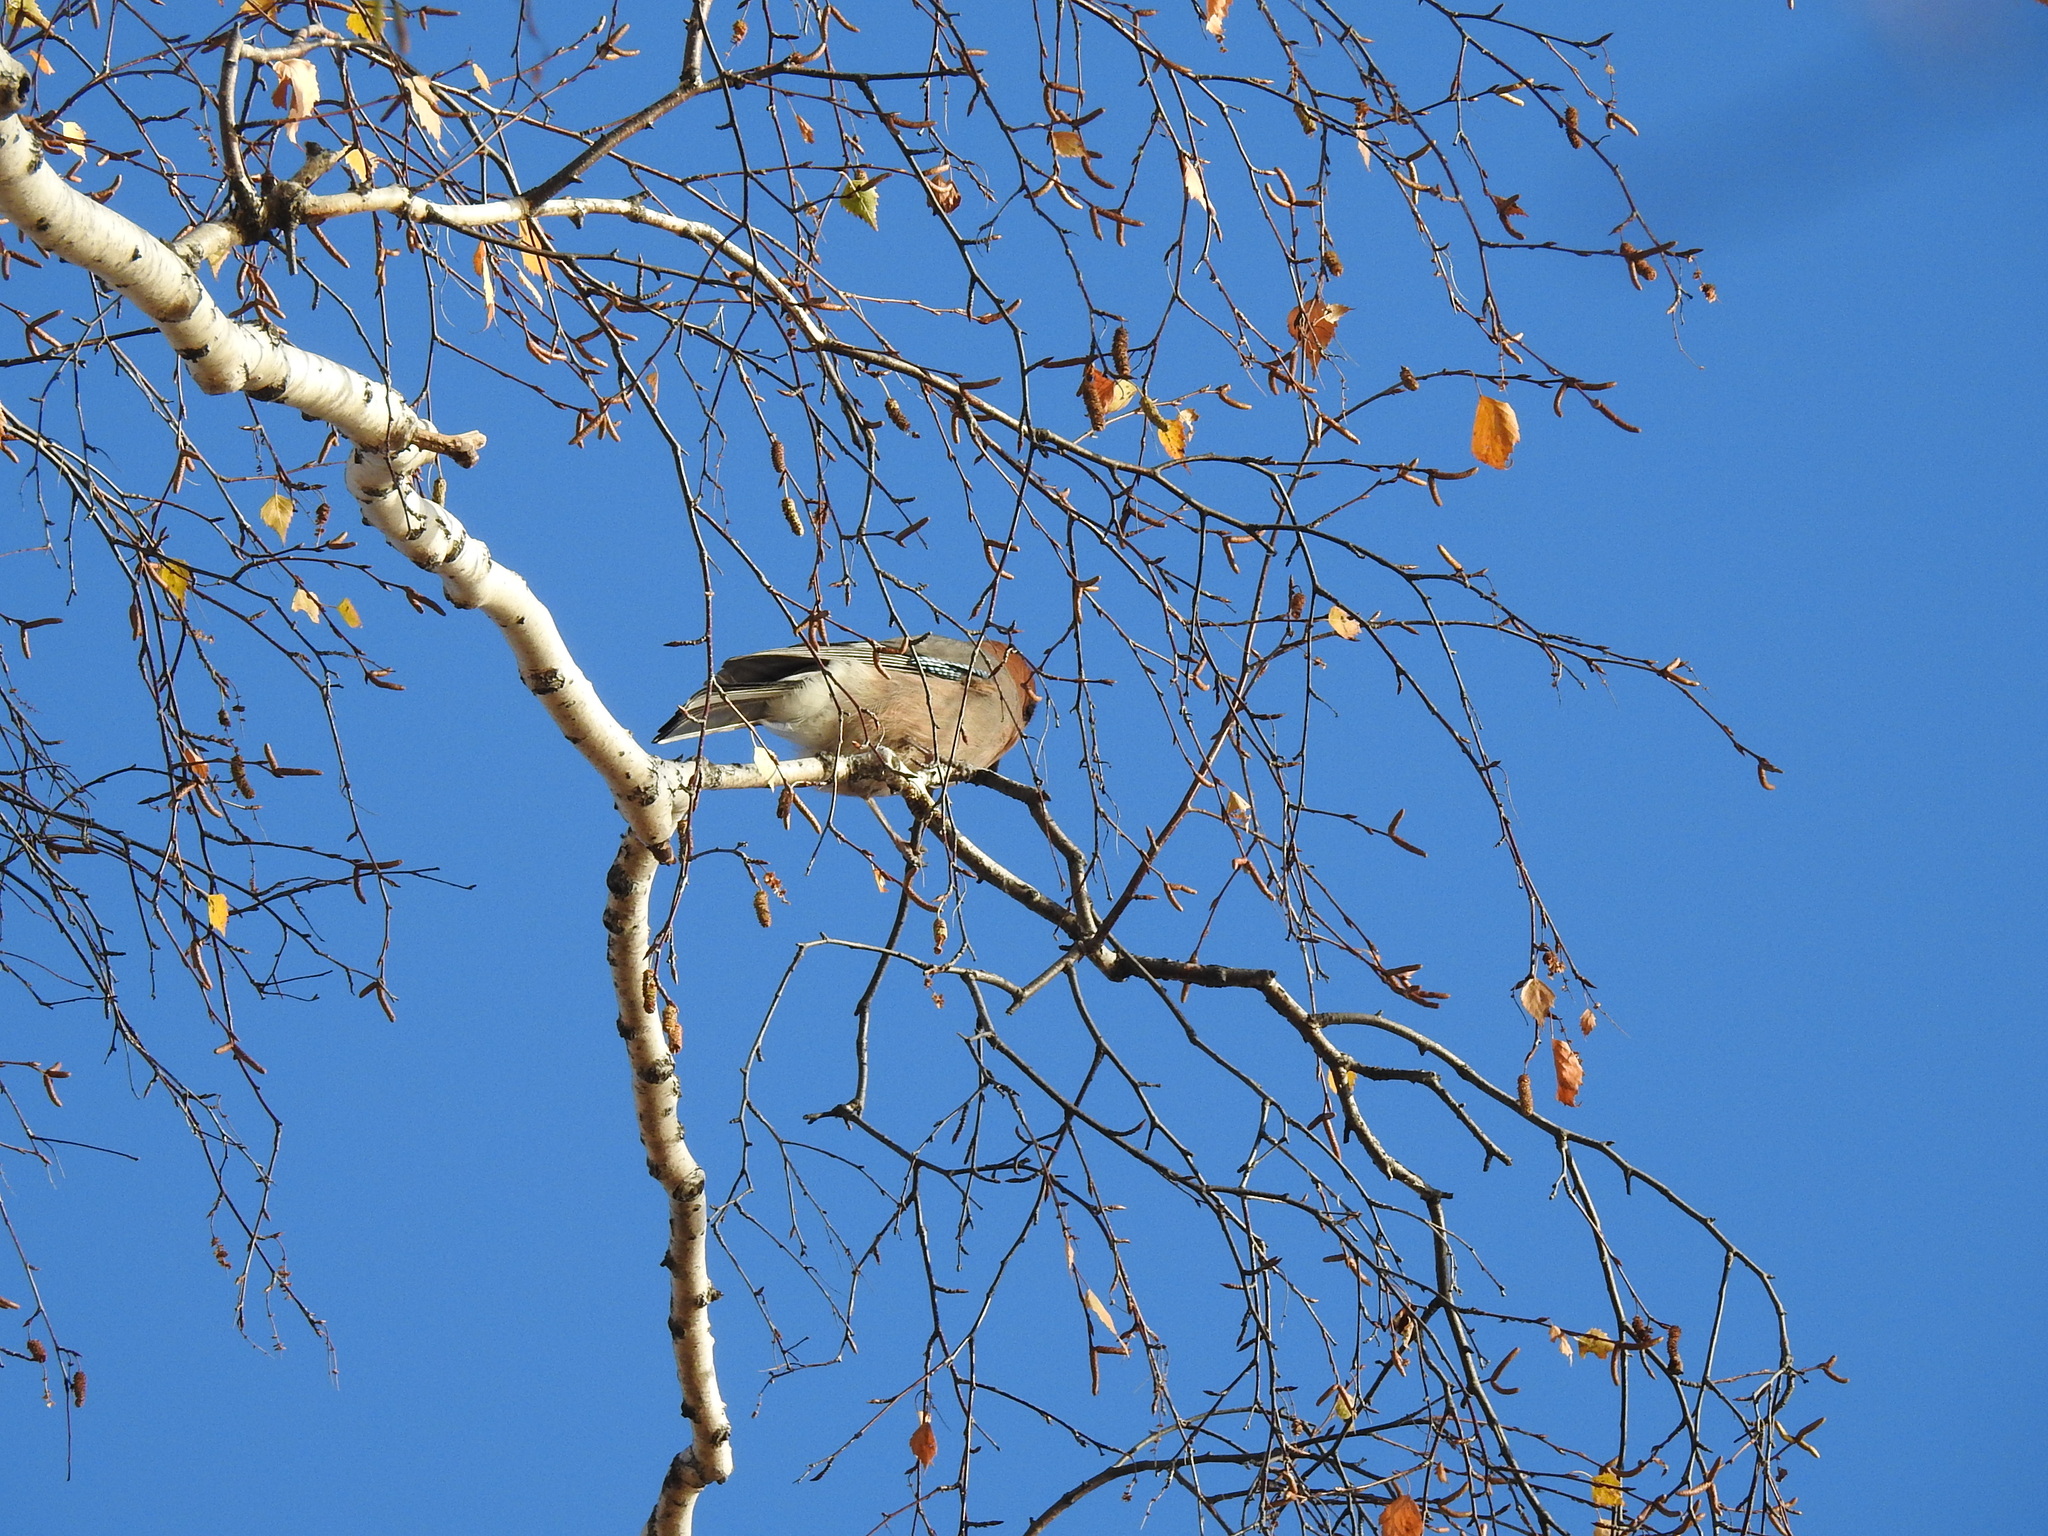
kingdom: Animalia
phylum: Chordata
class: Aves
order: Passeriformes
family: Corvidae
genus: Garrulus
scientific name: Garrulus glandarius
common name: Eurasian jay
